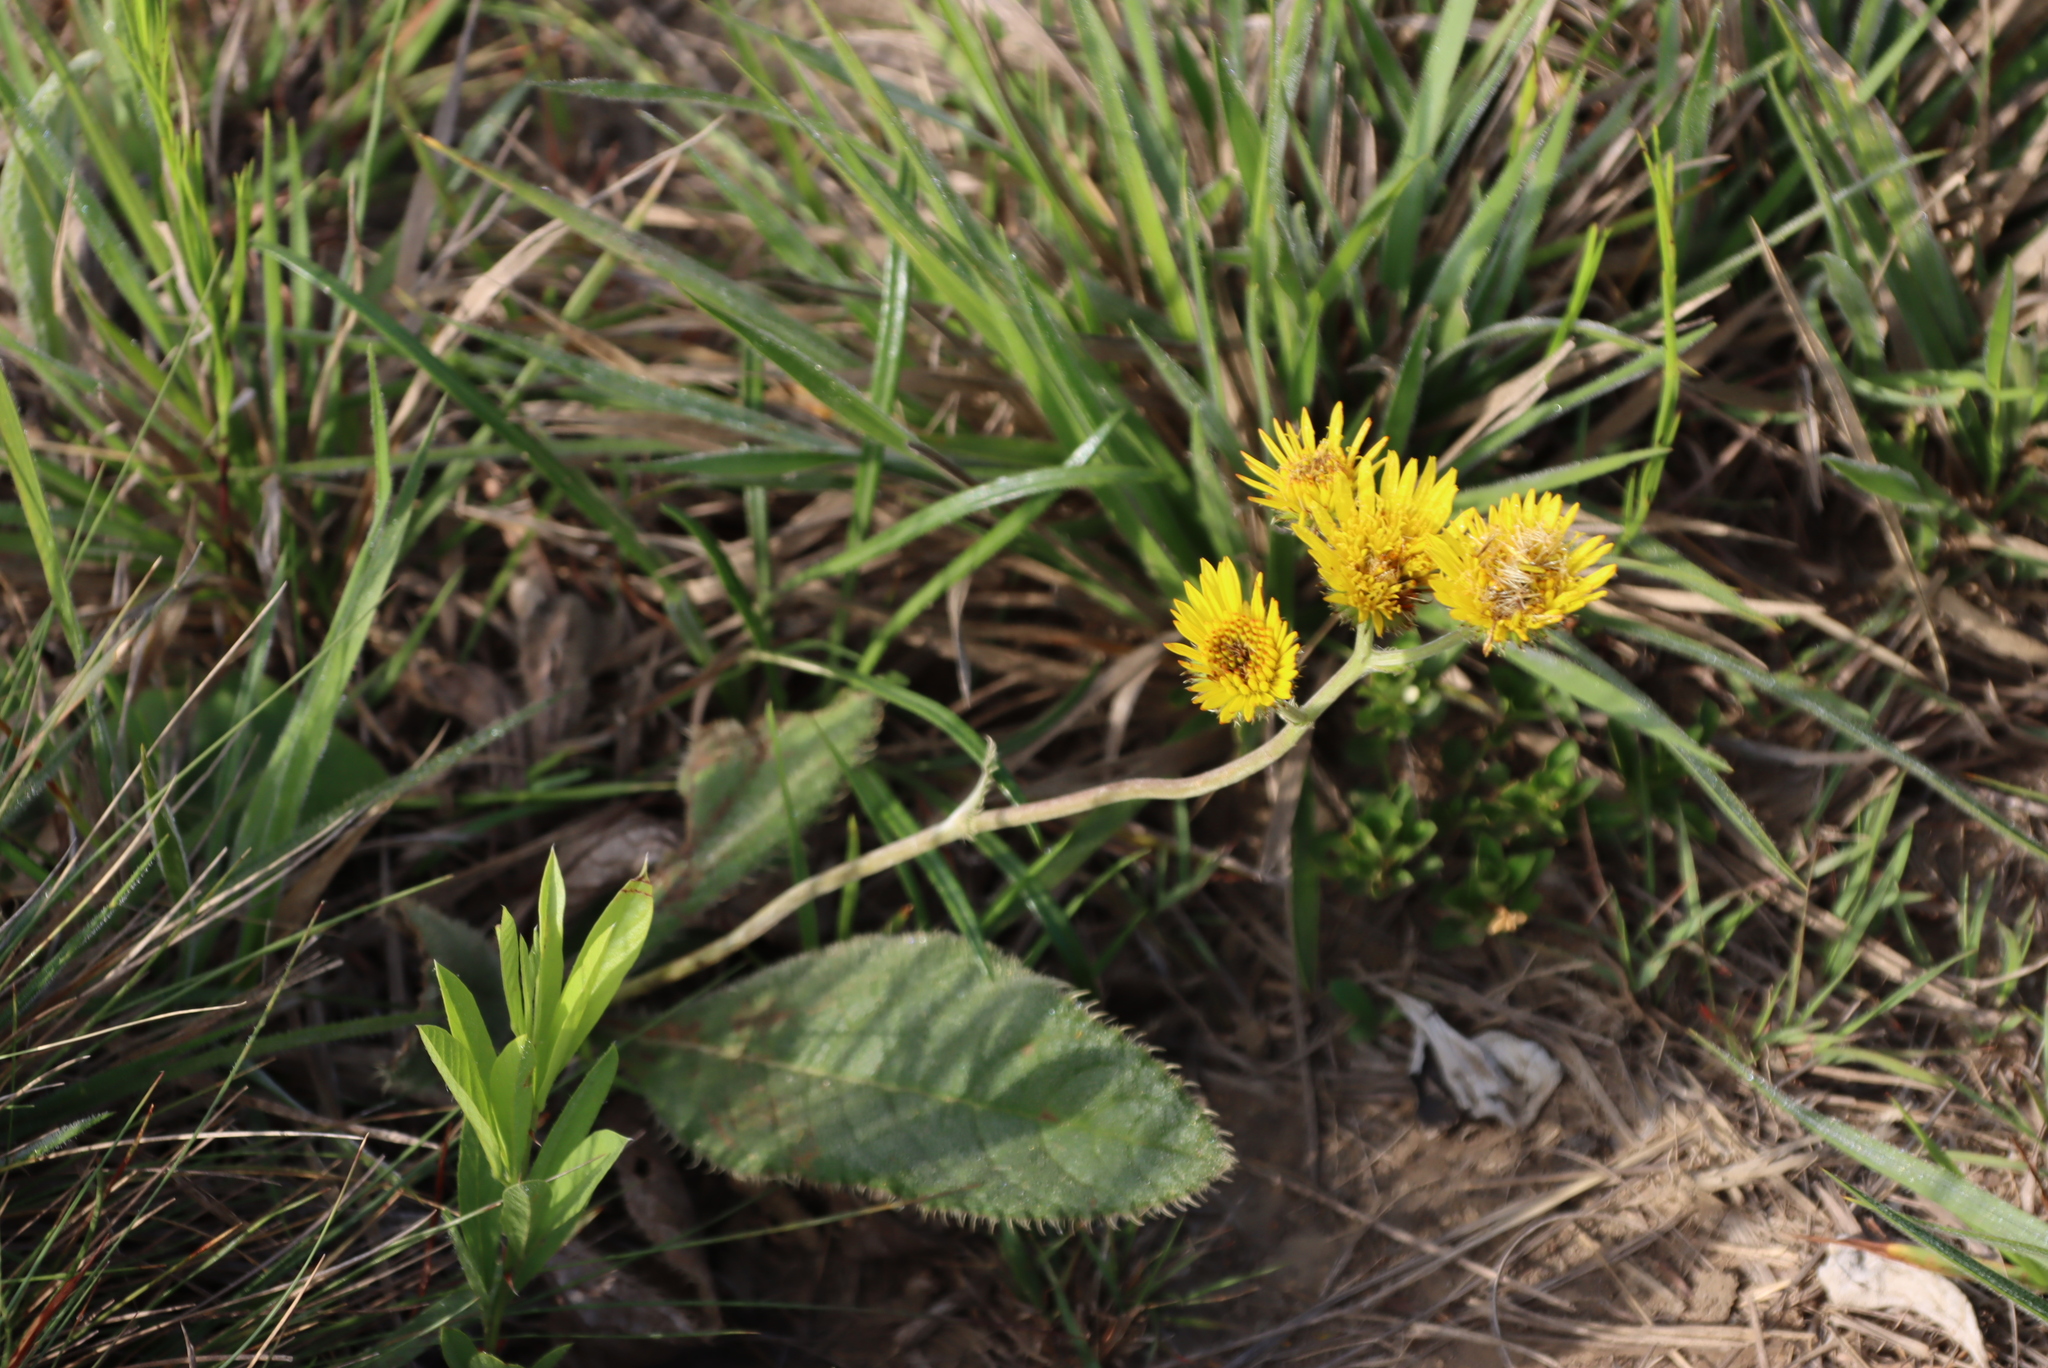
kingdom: Plantae
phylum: Tracheophyta
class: Magnoliopsida
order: Asterales
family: Asteraceae
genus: Berkheya
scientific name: Berkheya speciosa
